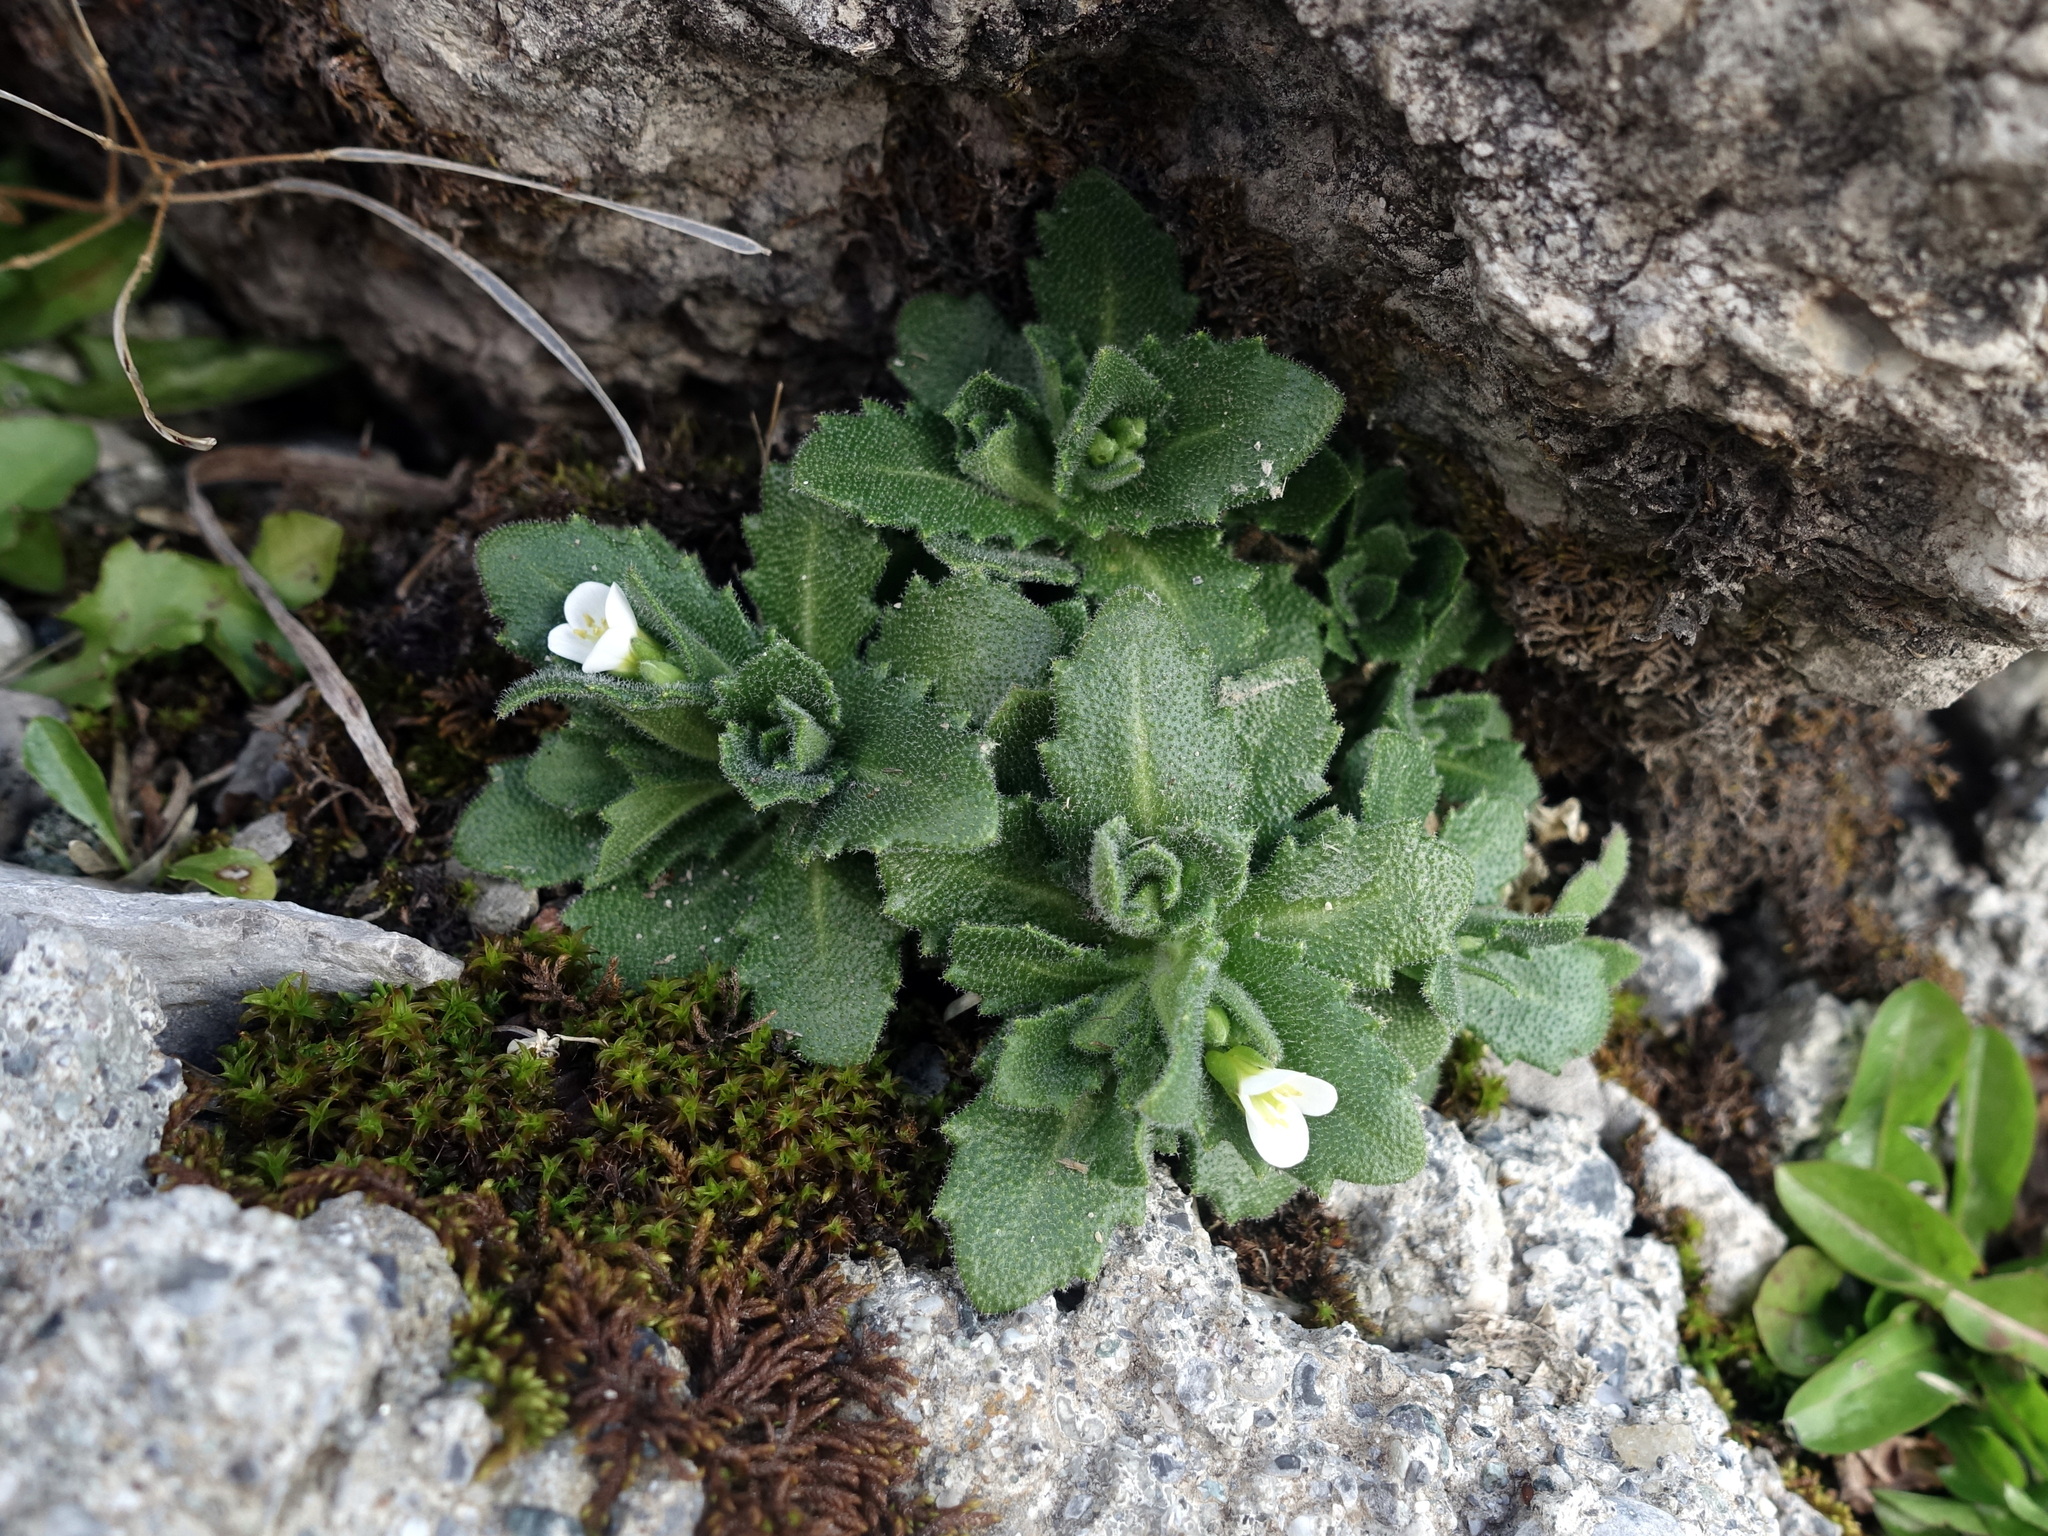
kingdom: Plantae
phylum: Tracheophyta
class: Magnoliopsida
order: Brassicales
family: Brassicaceae
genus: Arabis
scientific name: Arabis alpina
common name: Alpine rock-cress
